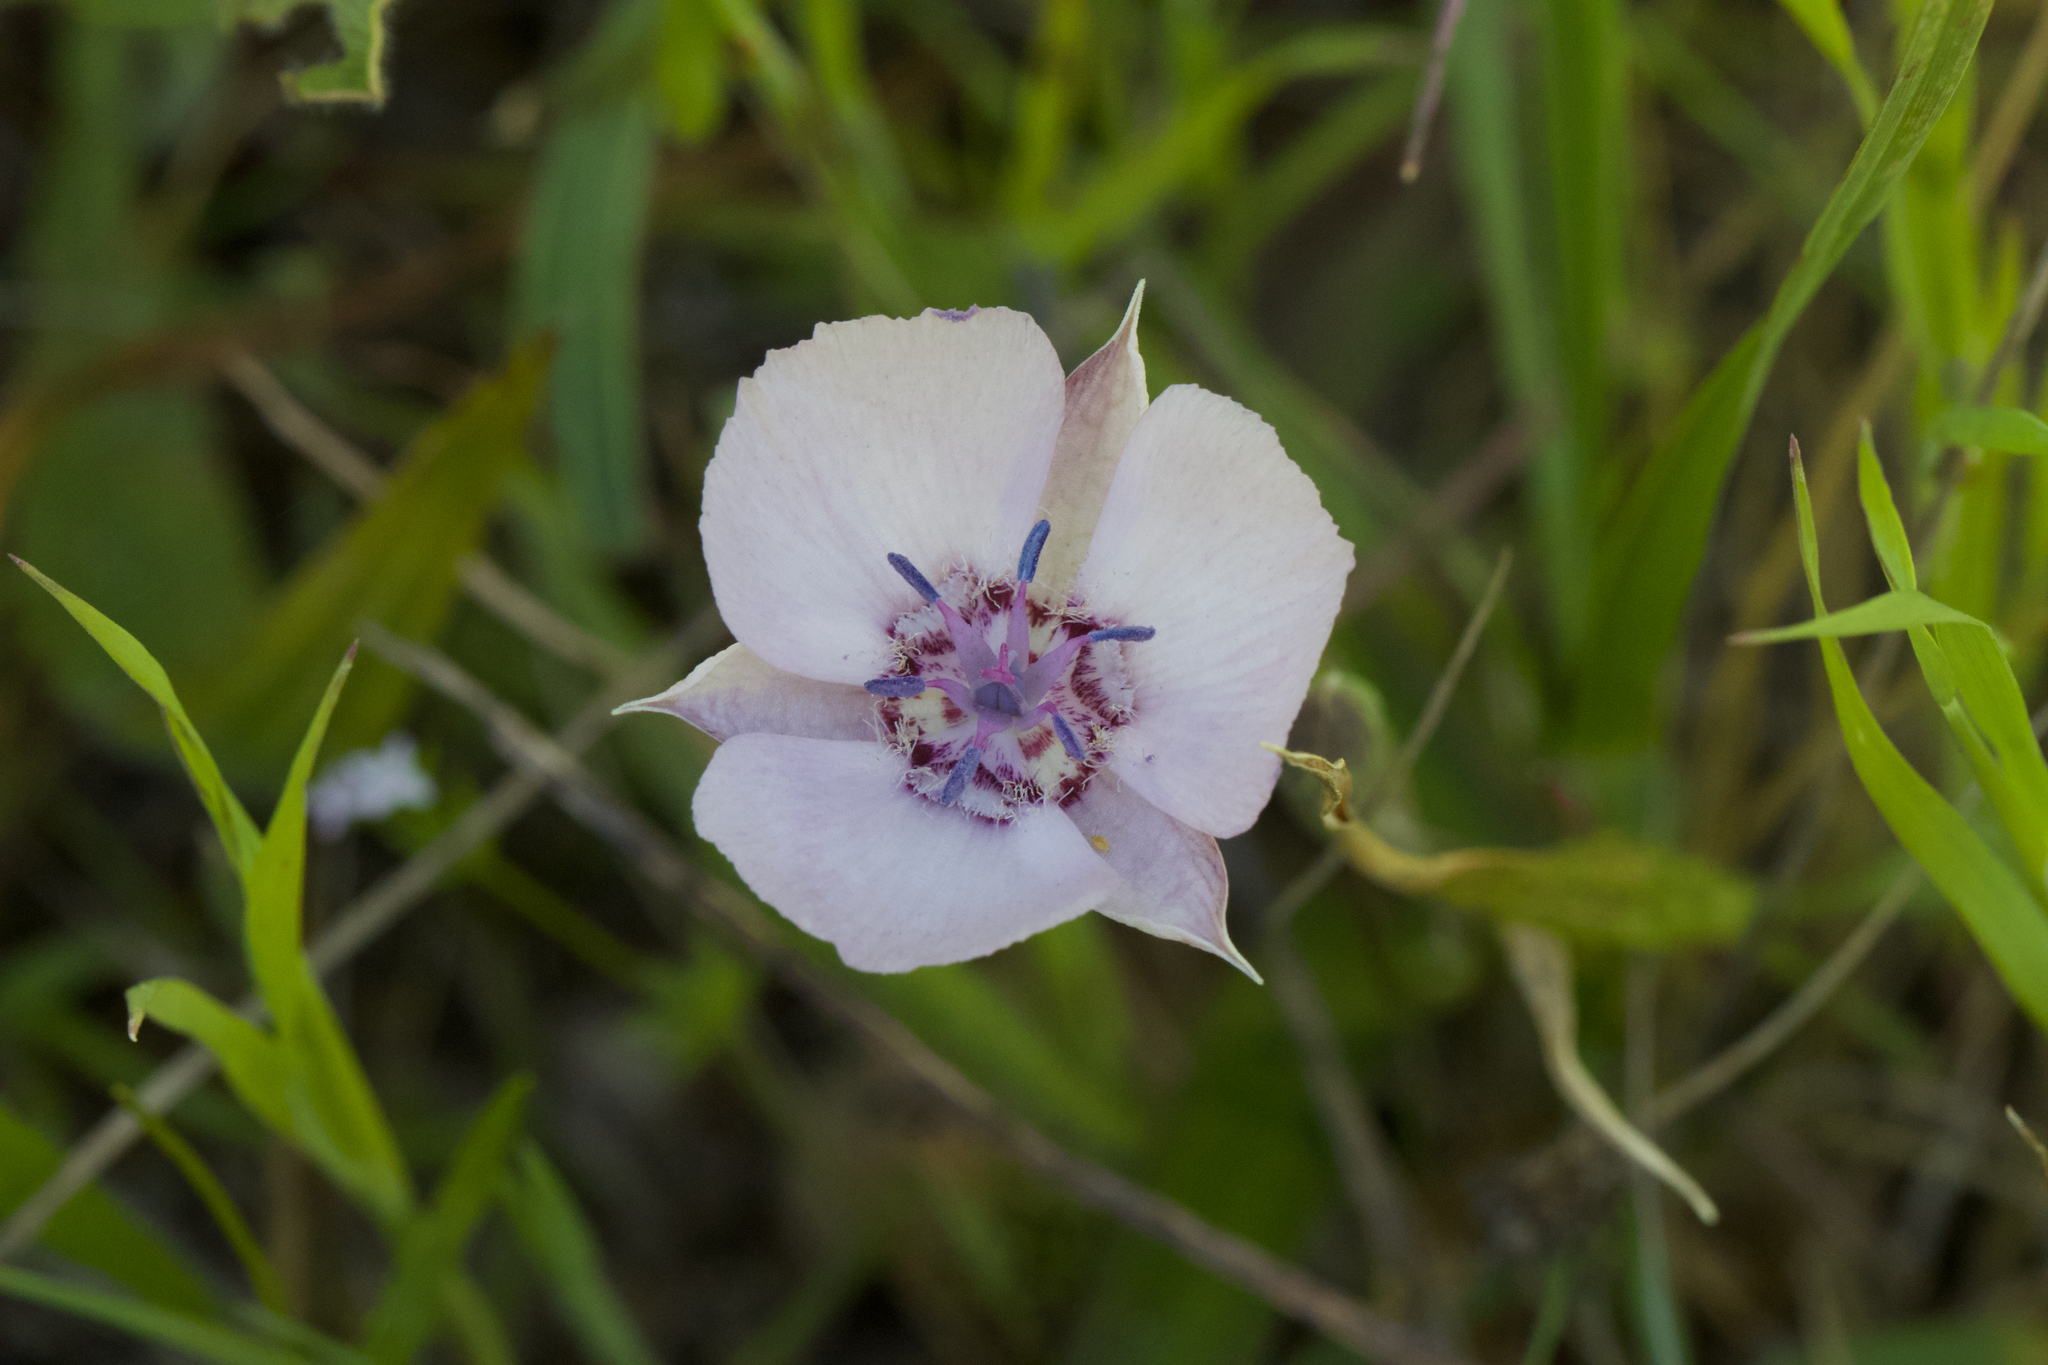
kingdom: Plantae
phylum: Tracheophyta
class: Liliopsida
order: Liliales
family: Liliaceae
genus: Calochortus
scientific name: Calochortus umbellatus
